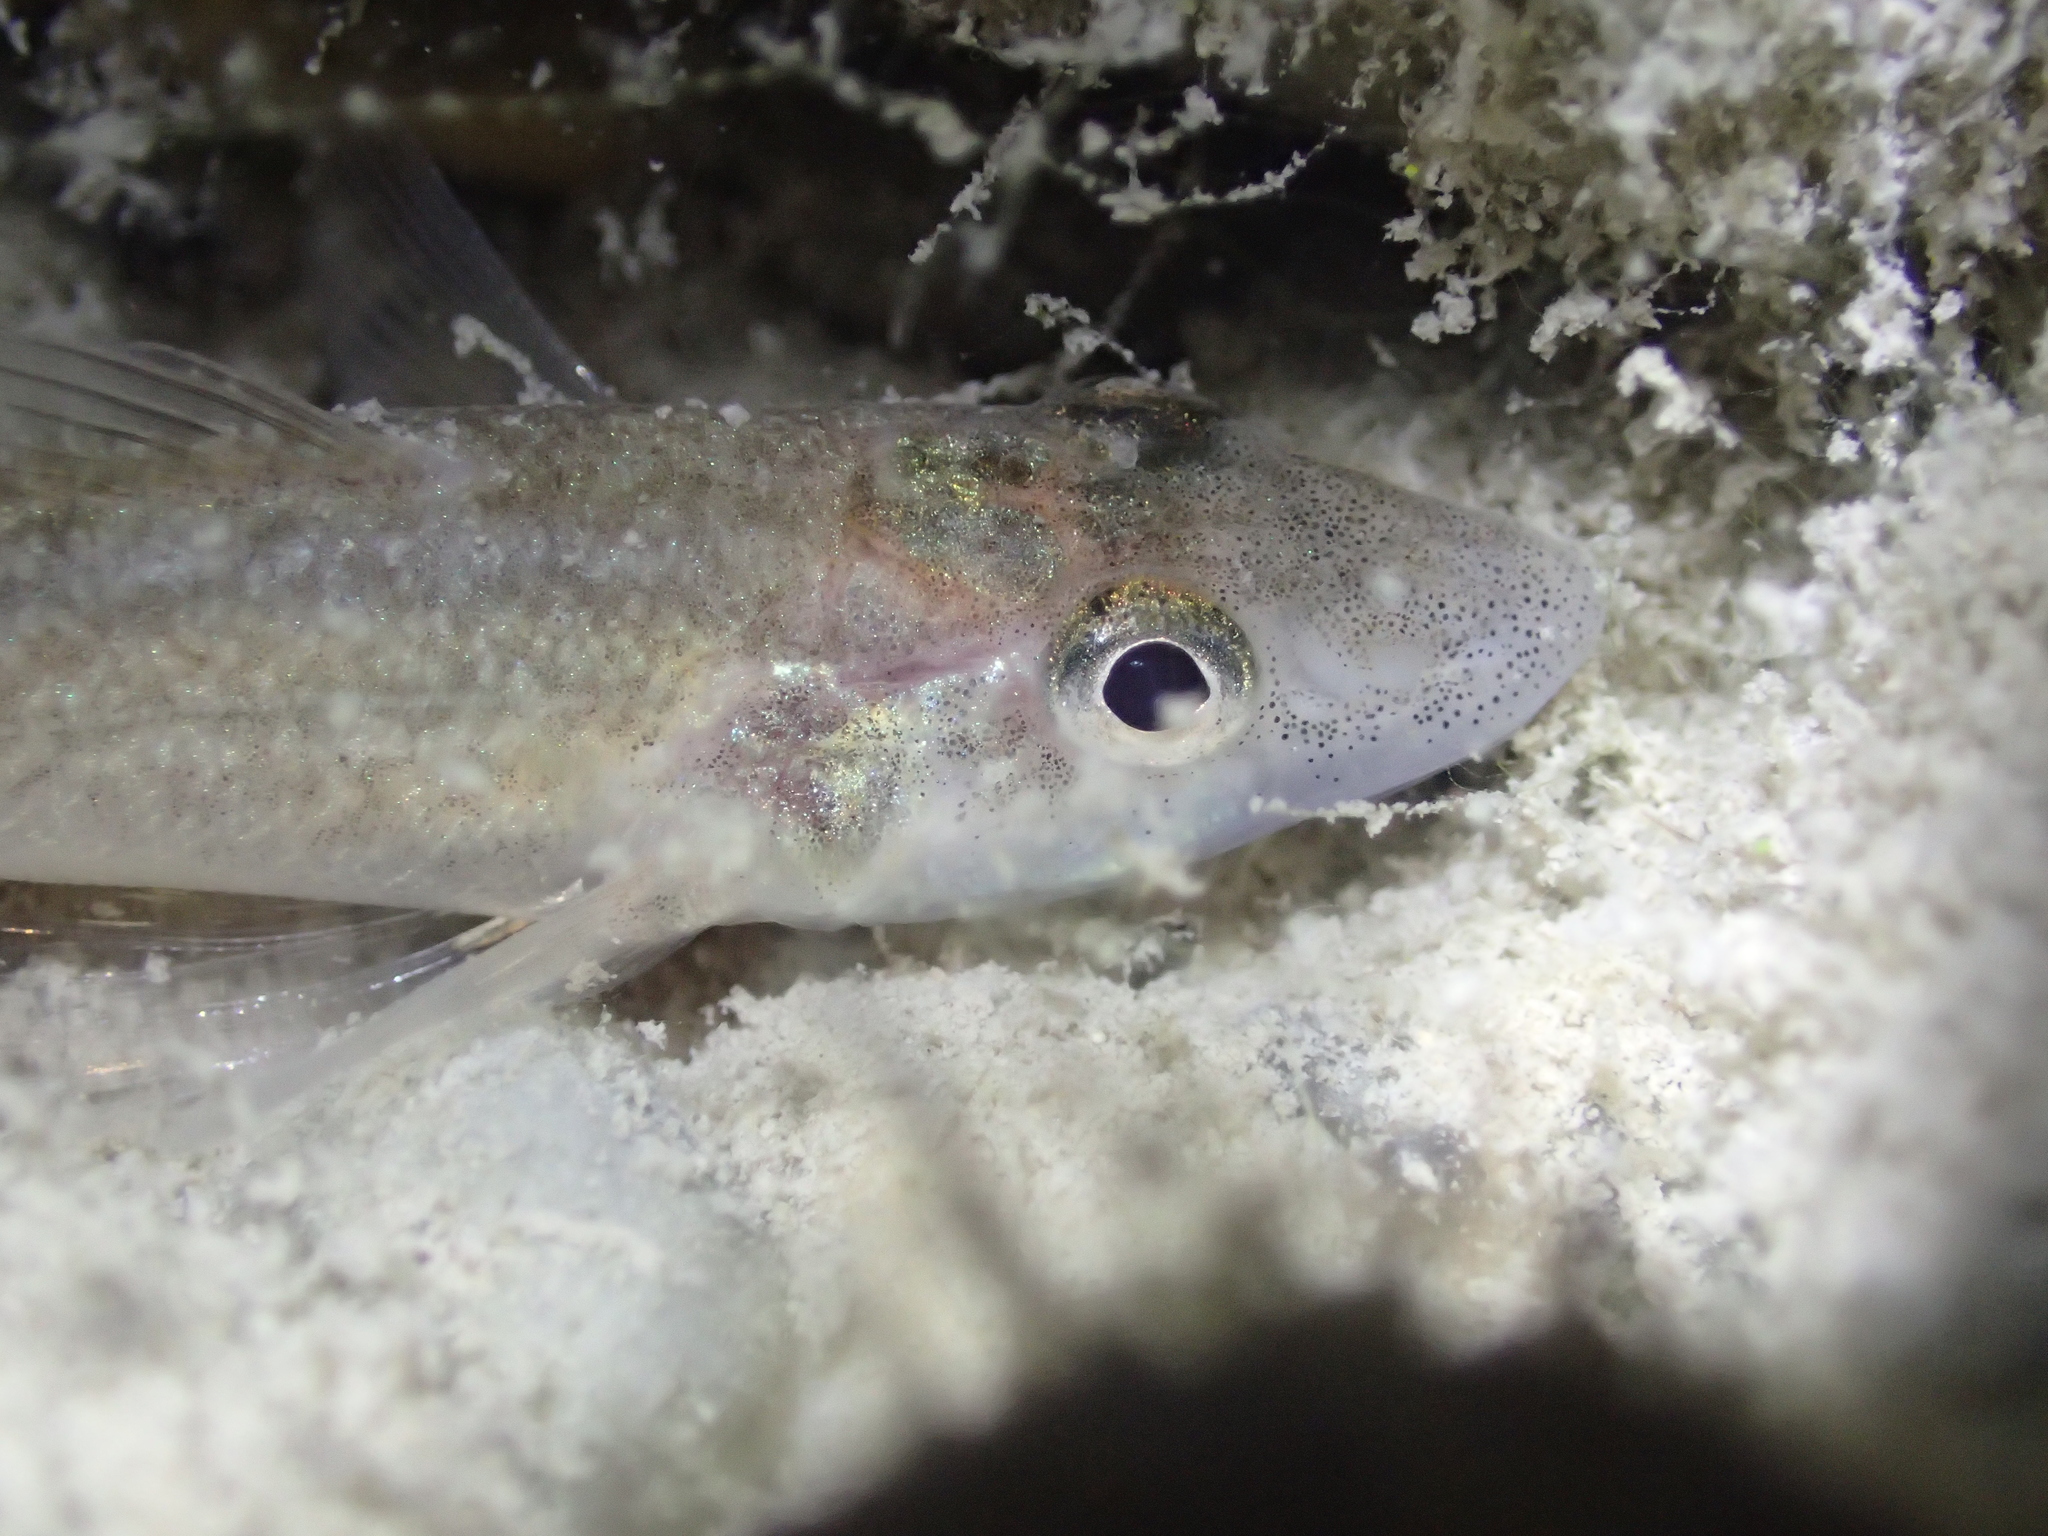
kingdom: Animalia
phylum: Chordata
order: Perciformes
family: Percidae
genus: Zingel
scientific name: Zingel asper
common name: Apron
